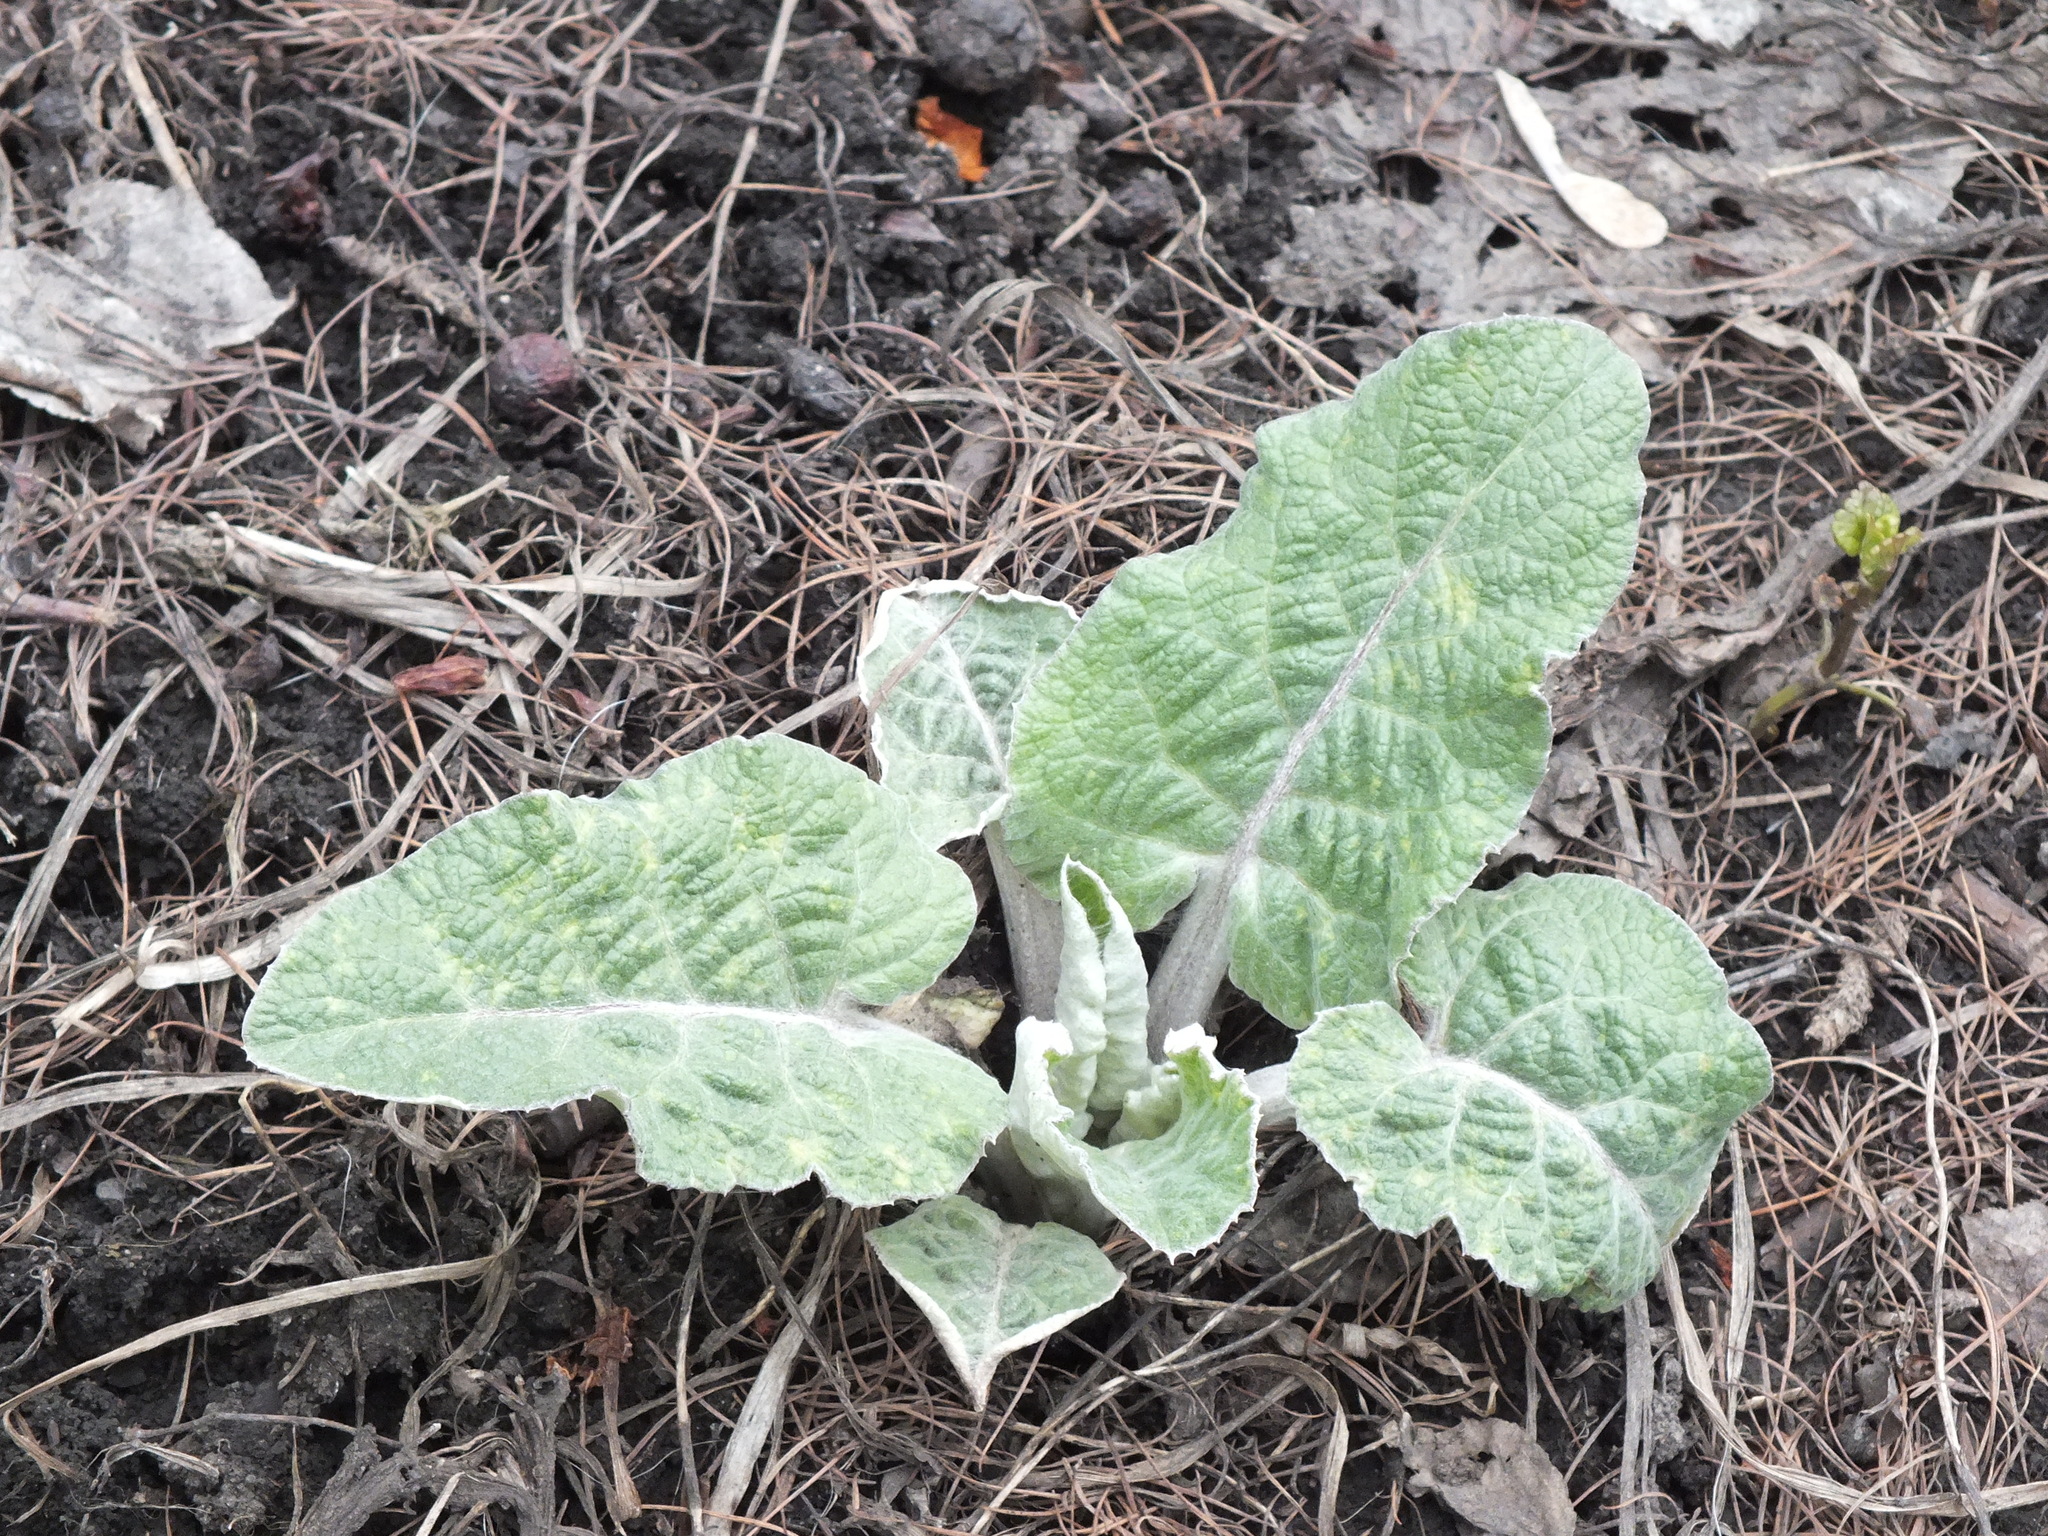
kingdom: Plantae
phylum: Tracheophyta
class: Magnoliopsida
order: Asterales
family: Asteraceae
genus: Arctium
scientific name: Arctium tomentosum
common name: Woolly burdock
